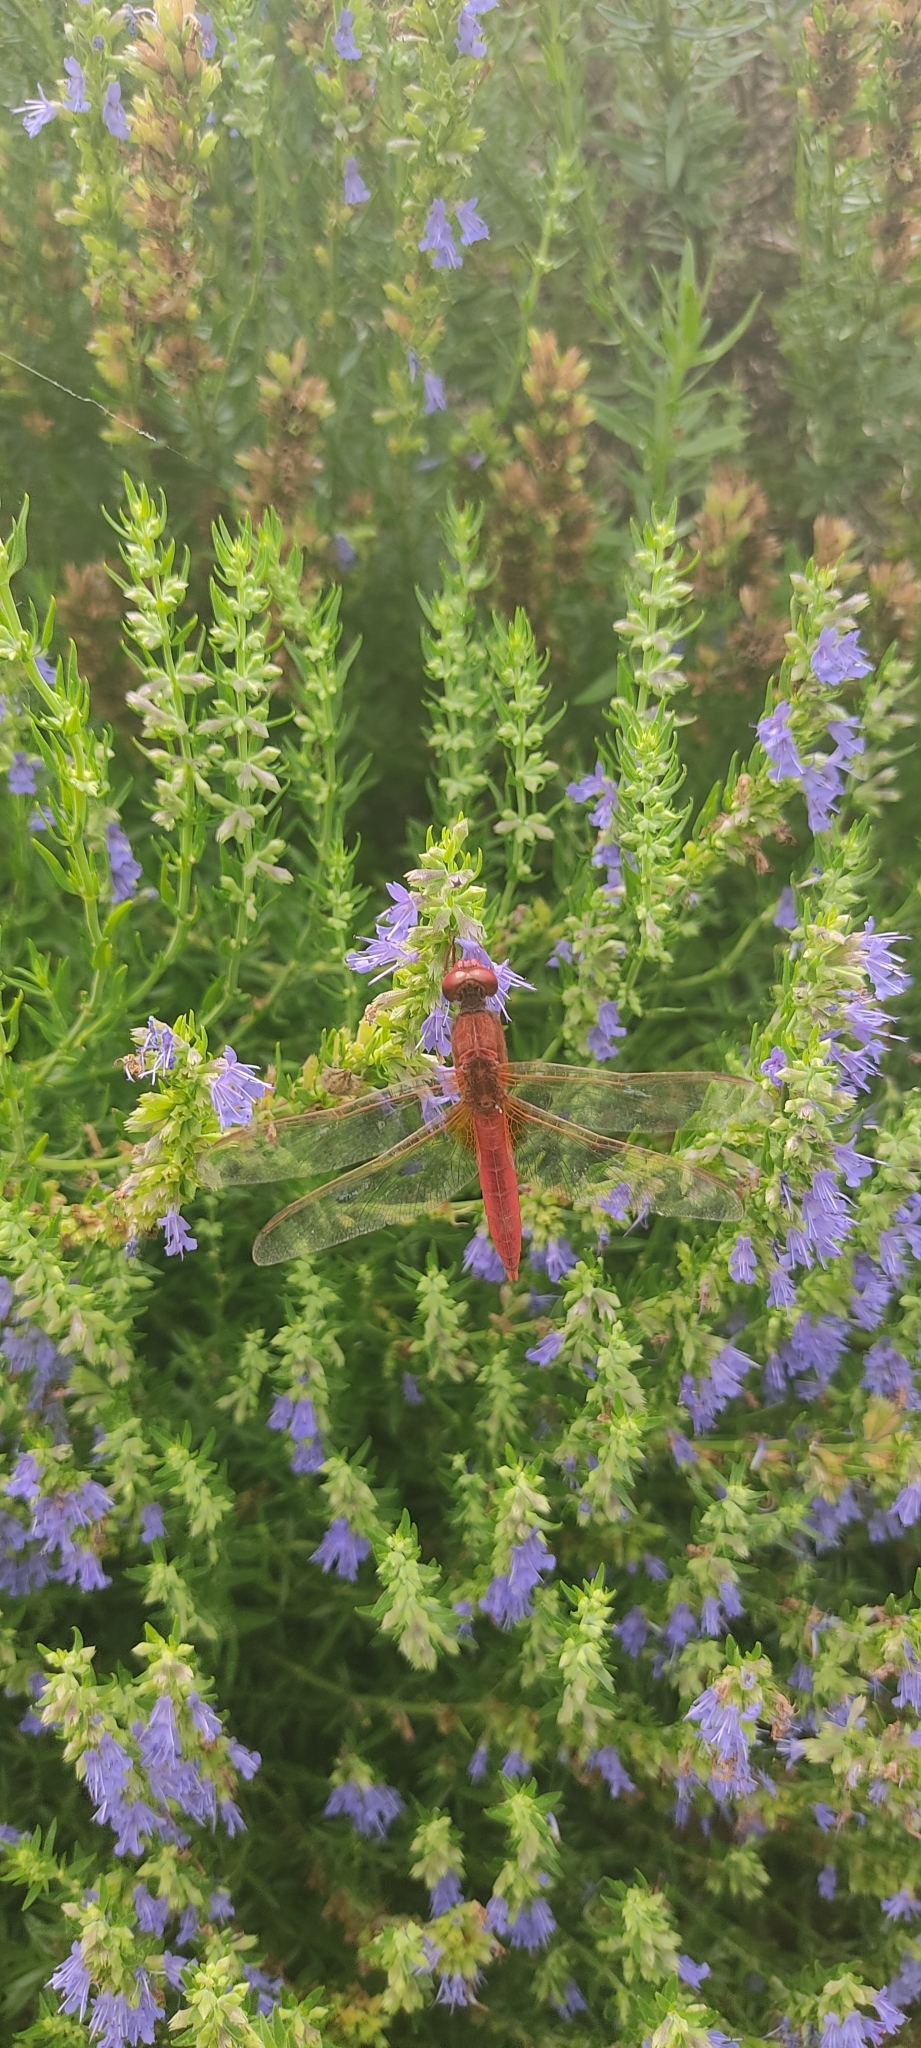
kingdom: Animalia
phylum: Arthropoda
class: Insecta
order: Odonata
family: Libellulidae
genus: Crocothemis
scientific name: Crocothemis erythraea
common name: Scarlet dragonfly
